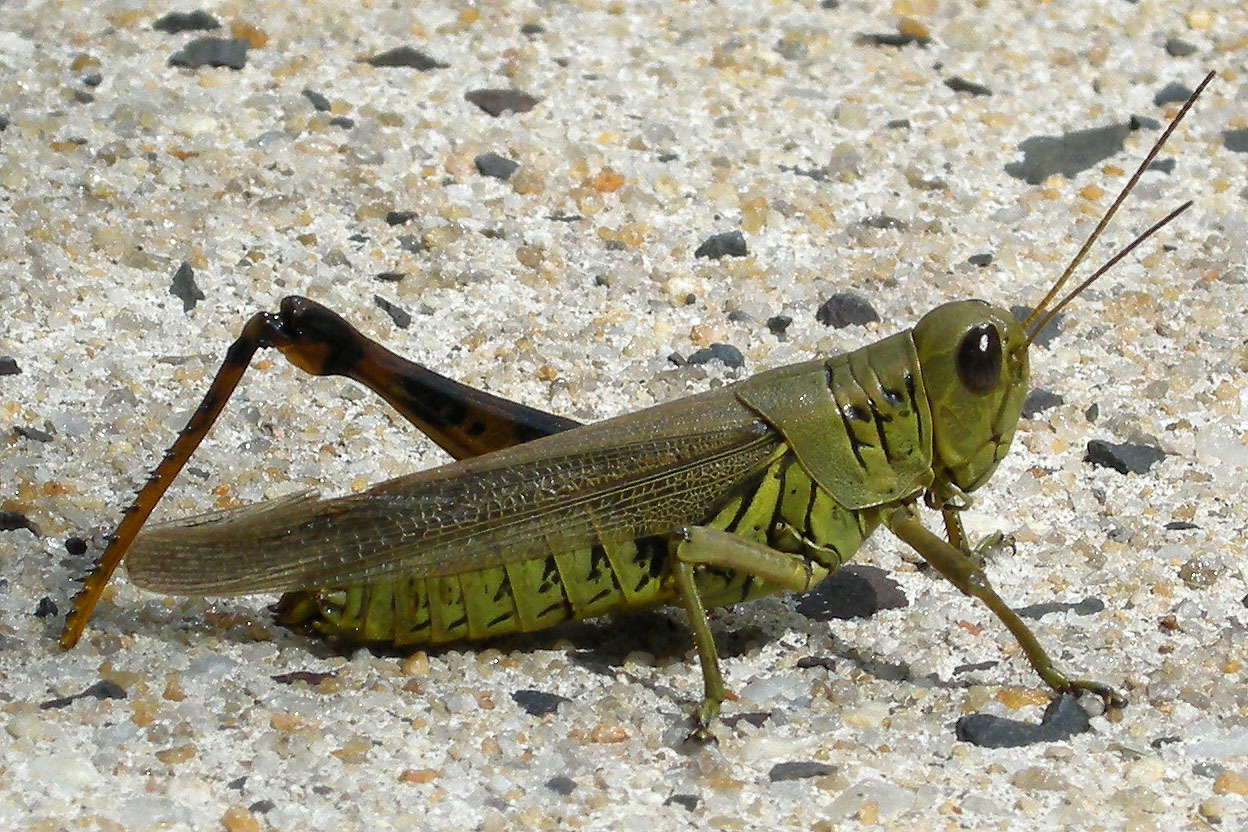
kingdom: Animalia
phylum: Arthropoda
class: Insecta
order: Orthoptera
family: Acrididae
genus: Melanoplus
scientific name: Melanoplus differentialis
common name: Differential grasshopper
